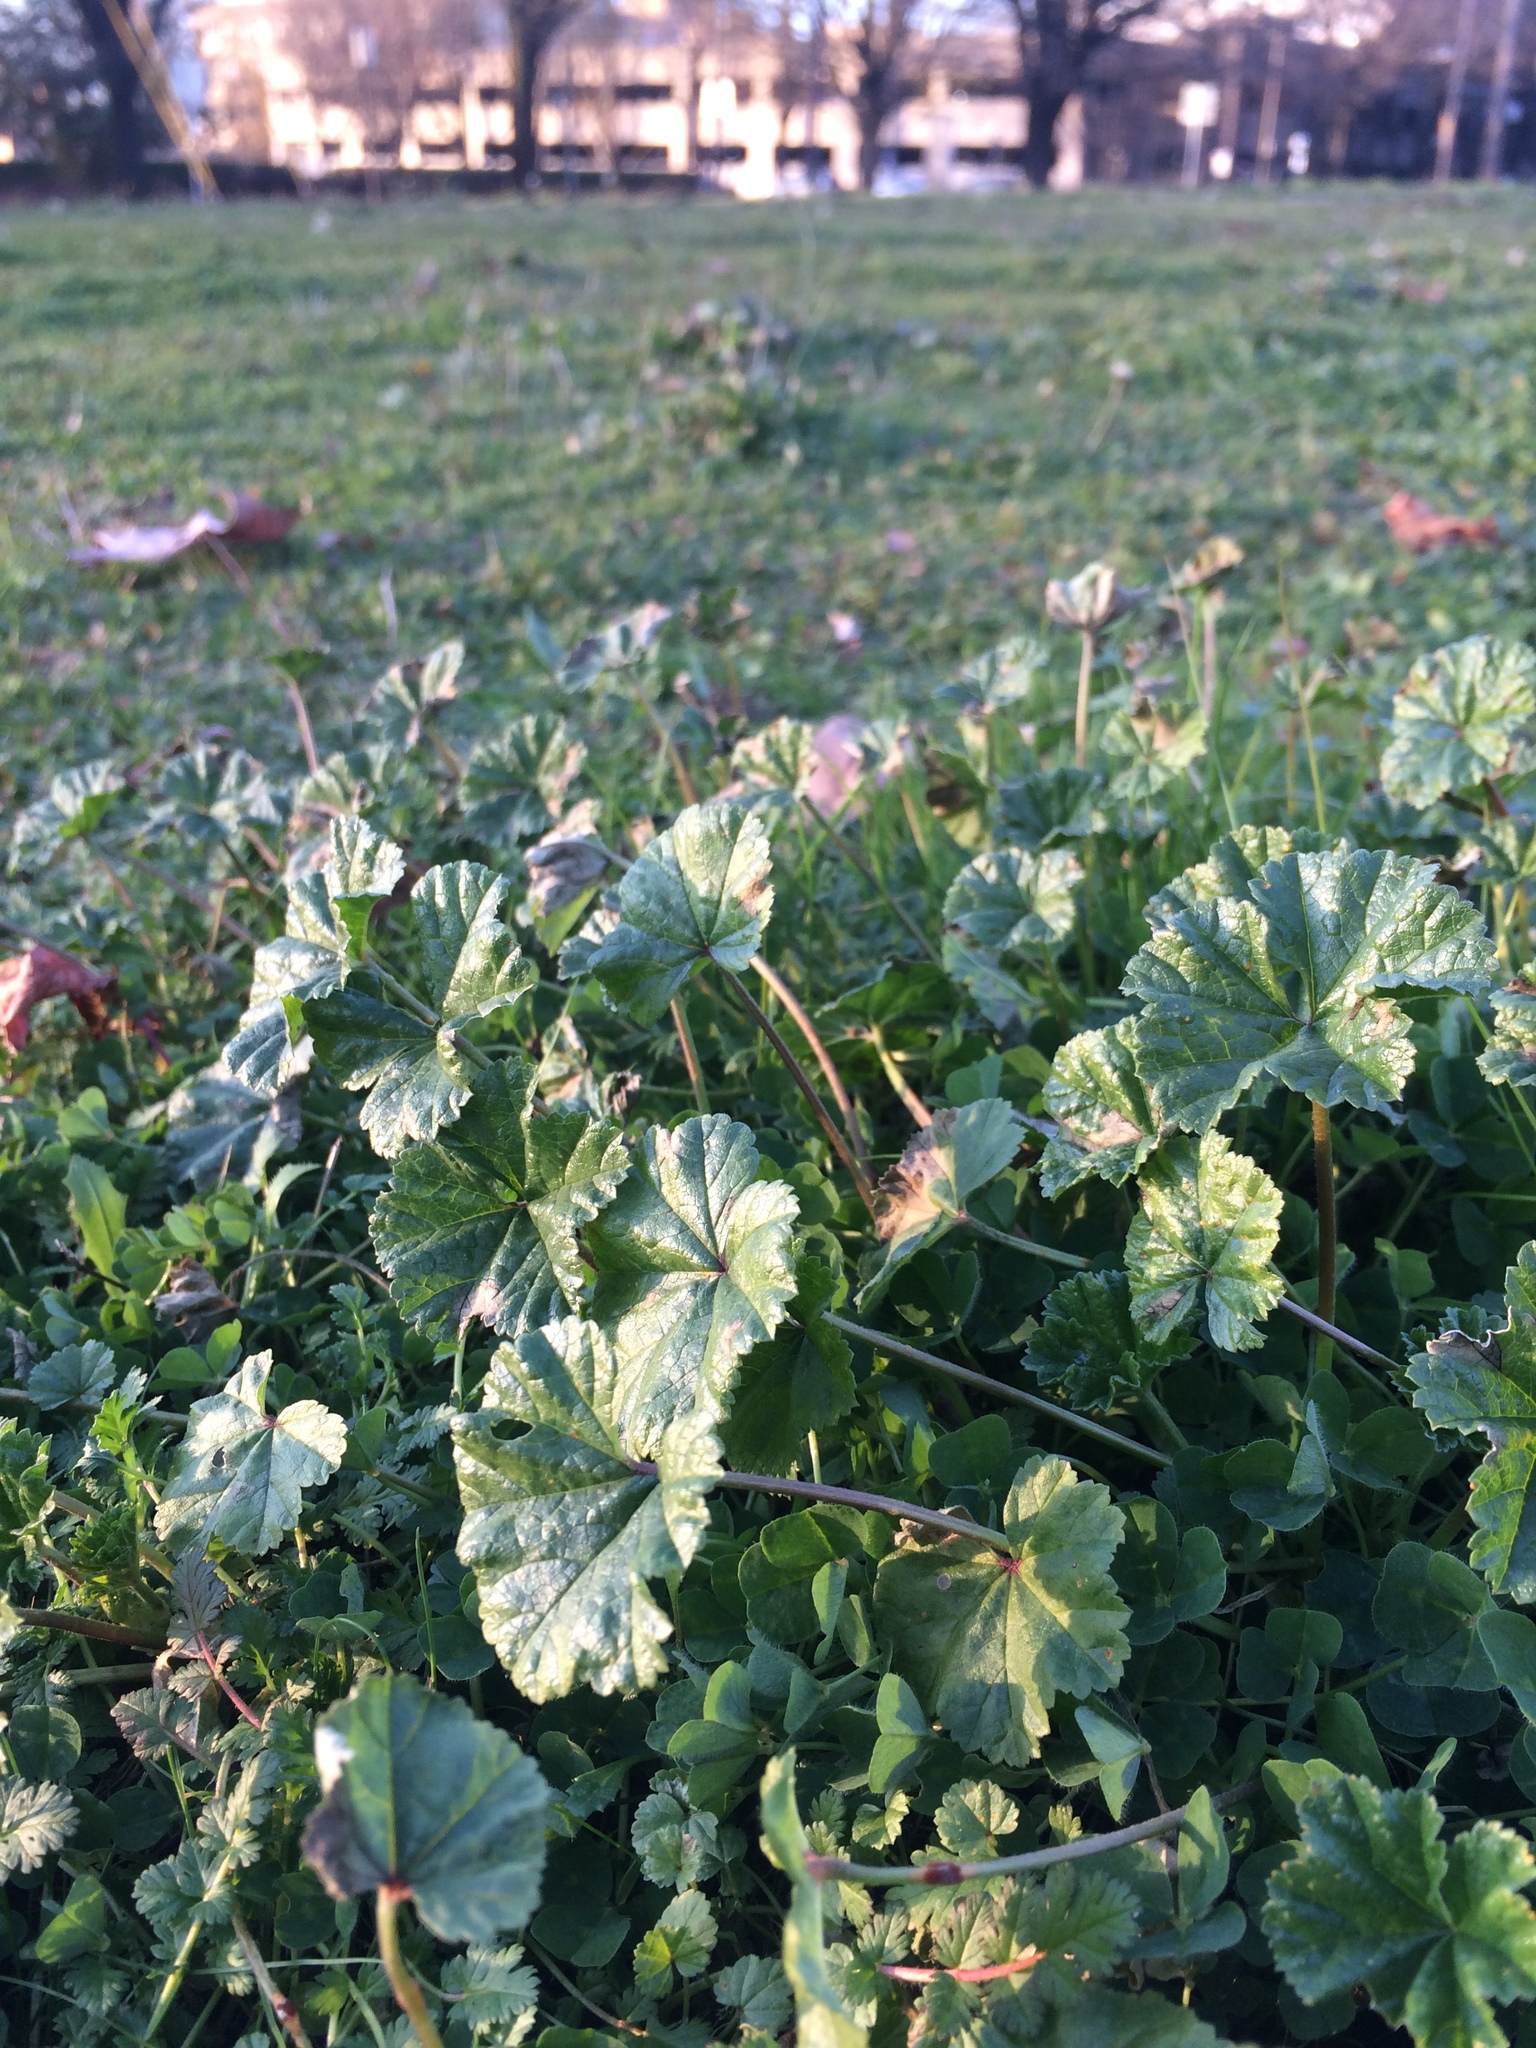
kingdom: Plantae
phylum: Tracheophyta
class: Magnoliopsida
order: Malvales
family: Malvaceae
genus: Malva
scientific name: Malva neglecta
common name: Common mallow
